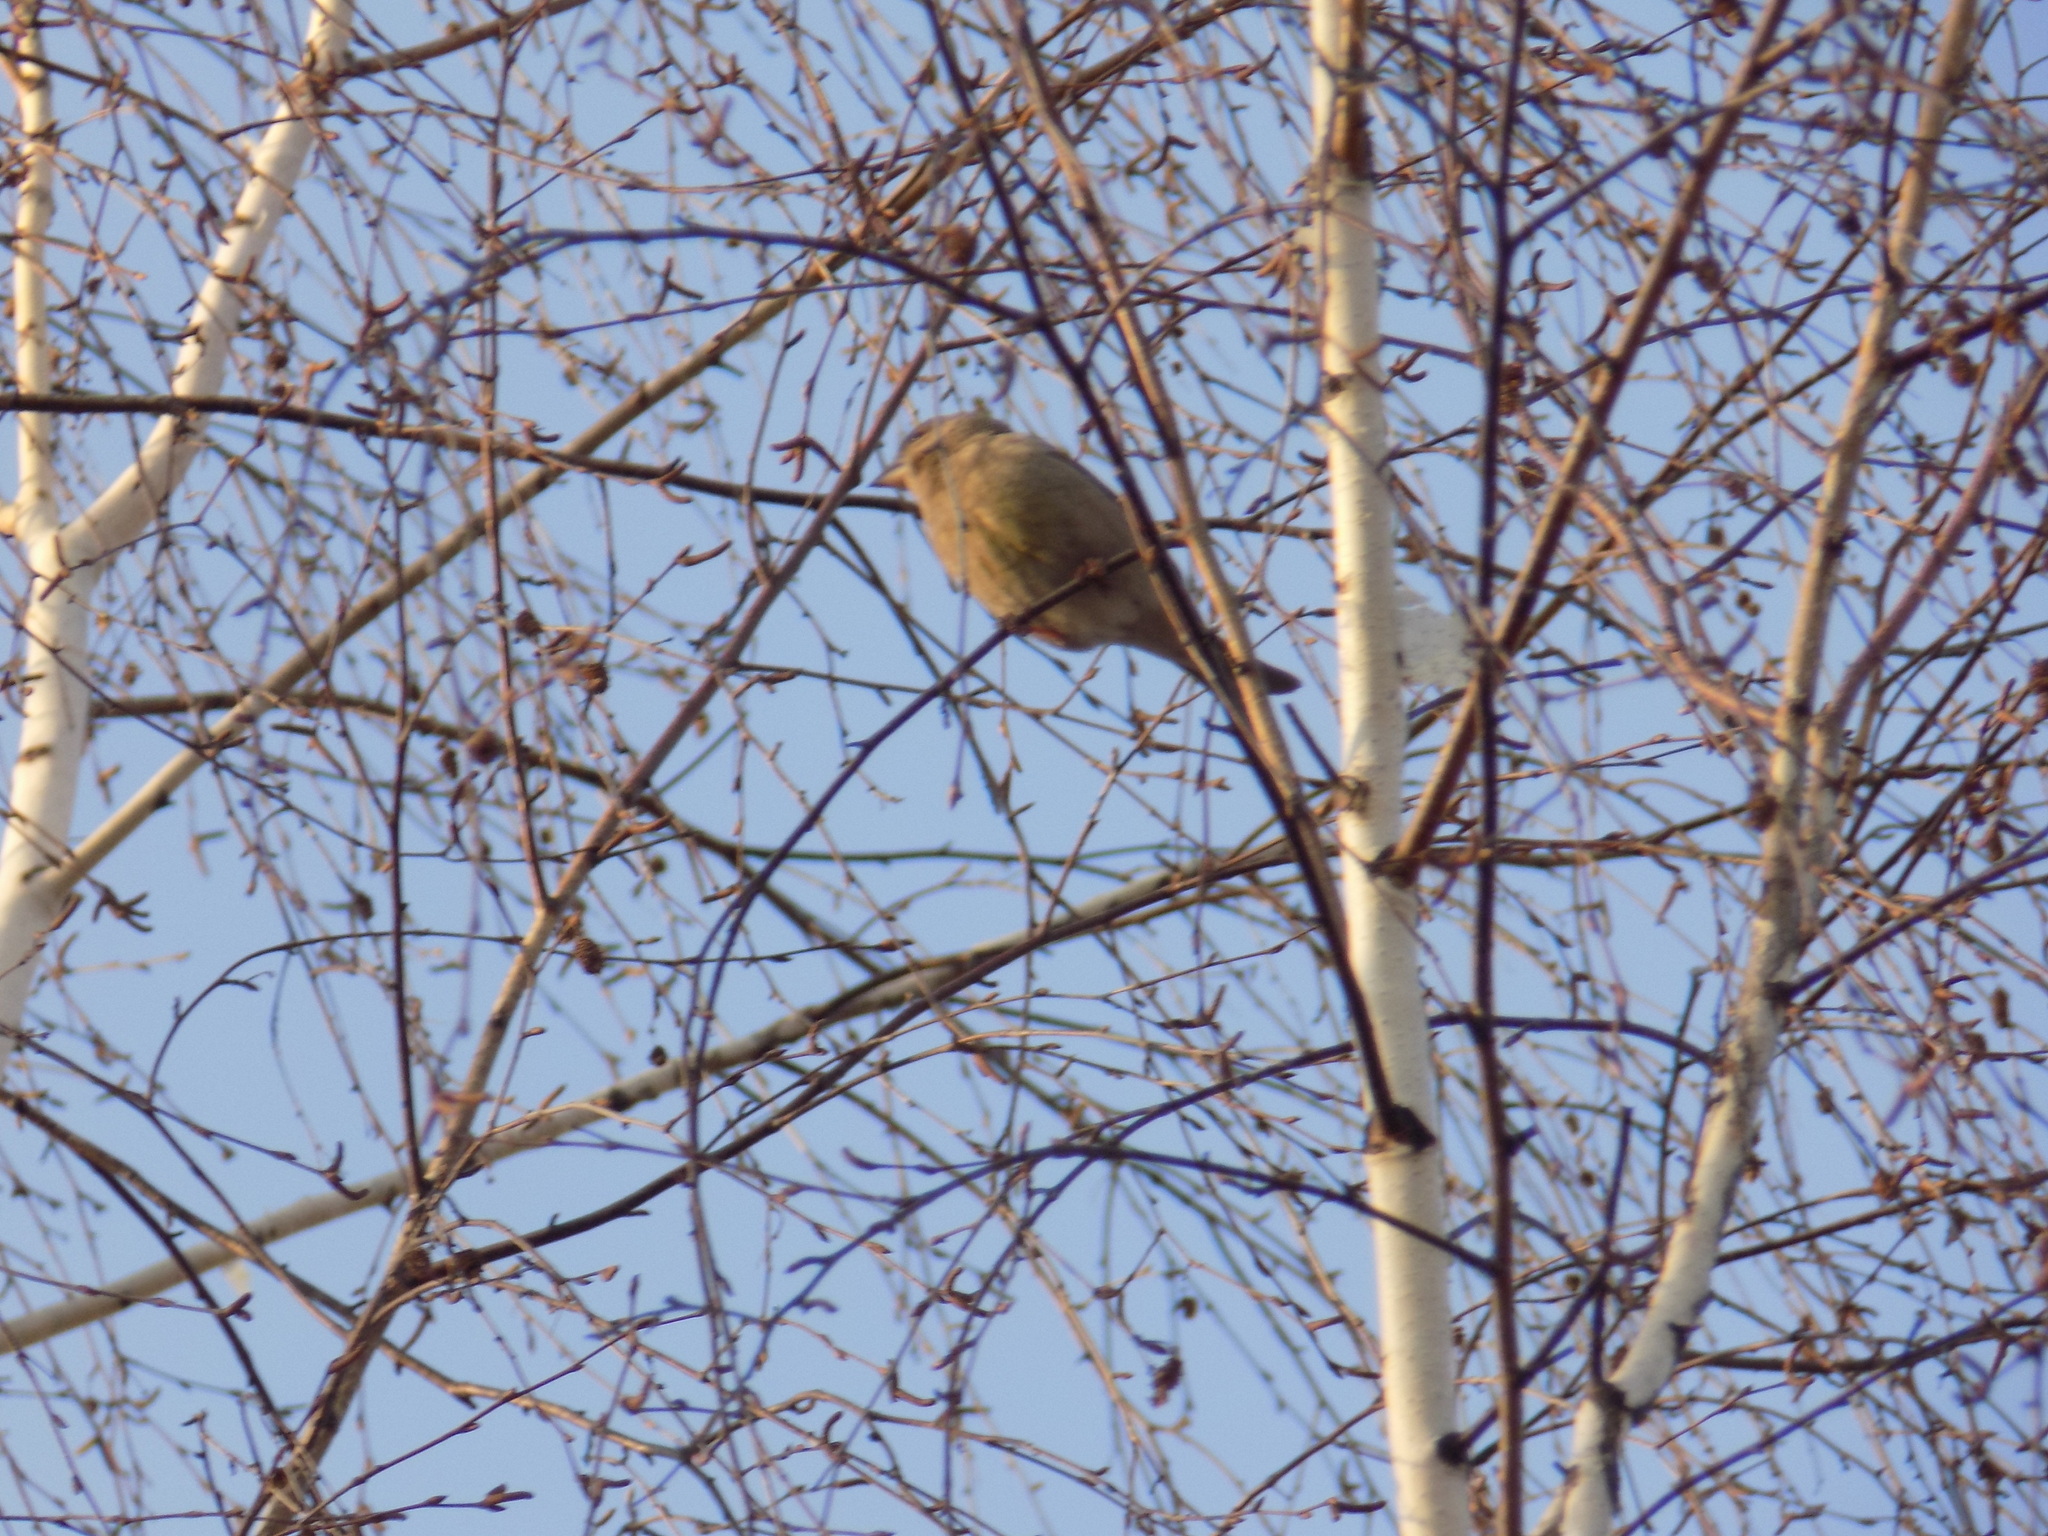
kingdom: Plantae
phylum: Tracheophyta
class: Liliopsida
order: Poales
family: Poaceae
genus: Chloris
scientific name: Chloris chloris
